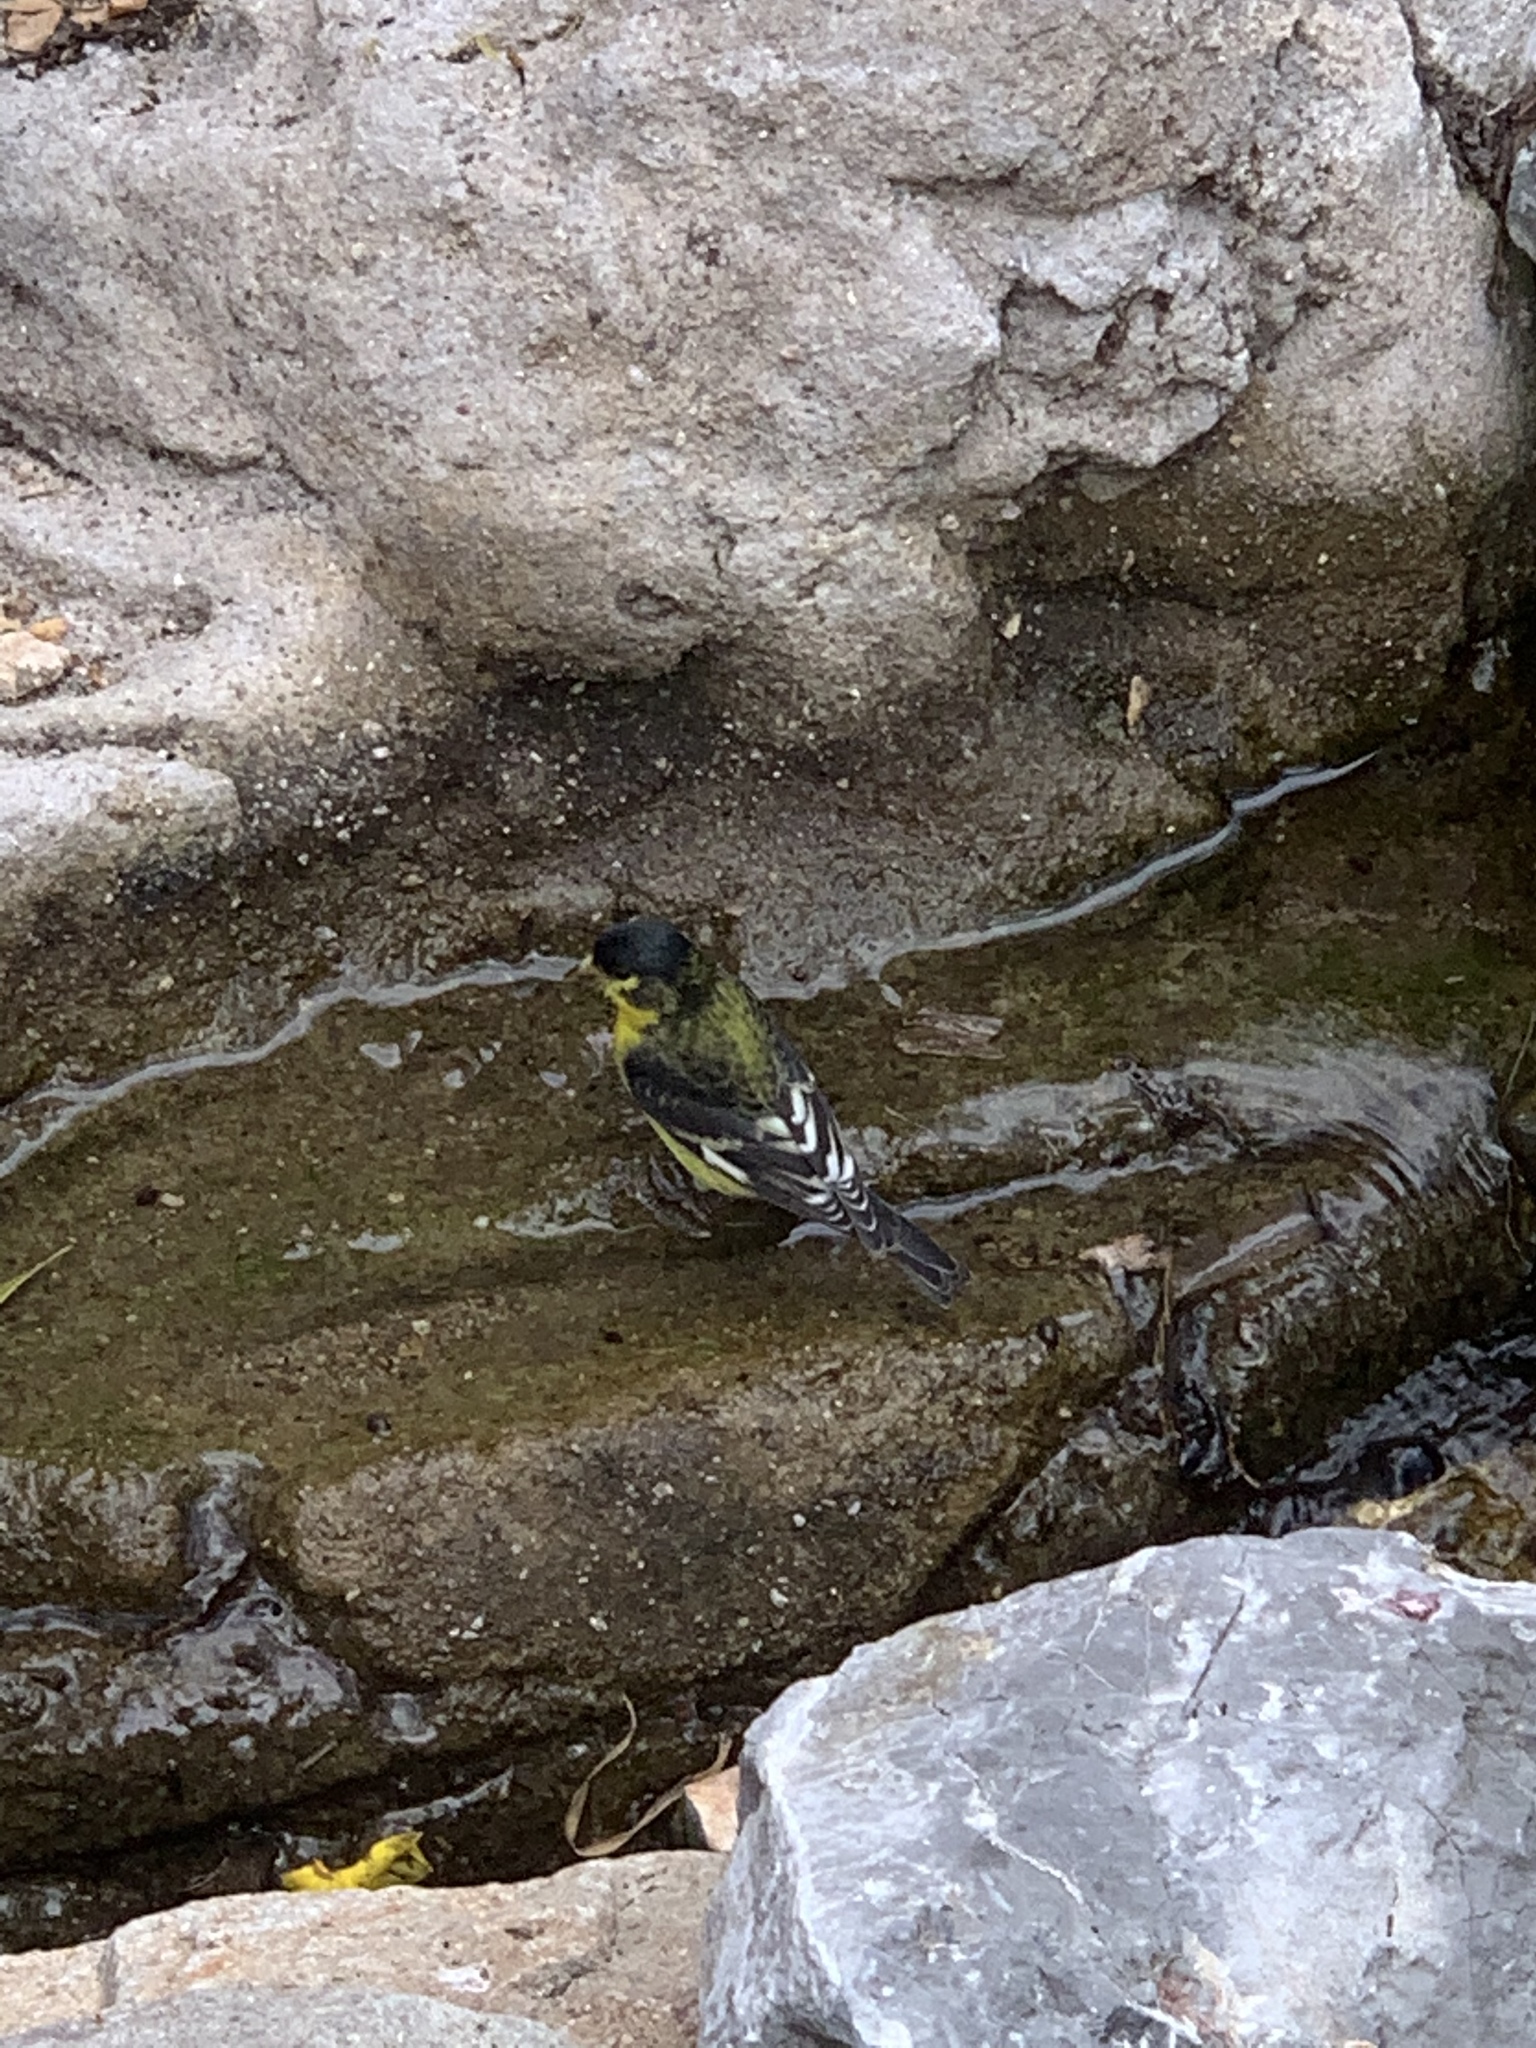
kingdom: Animalia
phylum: Chordata
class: Aves
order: Passeriformes
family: Fringillidae
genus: Spinus
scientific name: Spinus psaltria
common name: Lesser goldfinch
